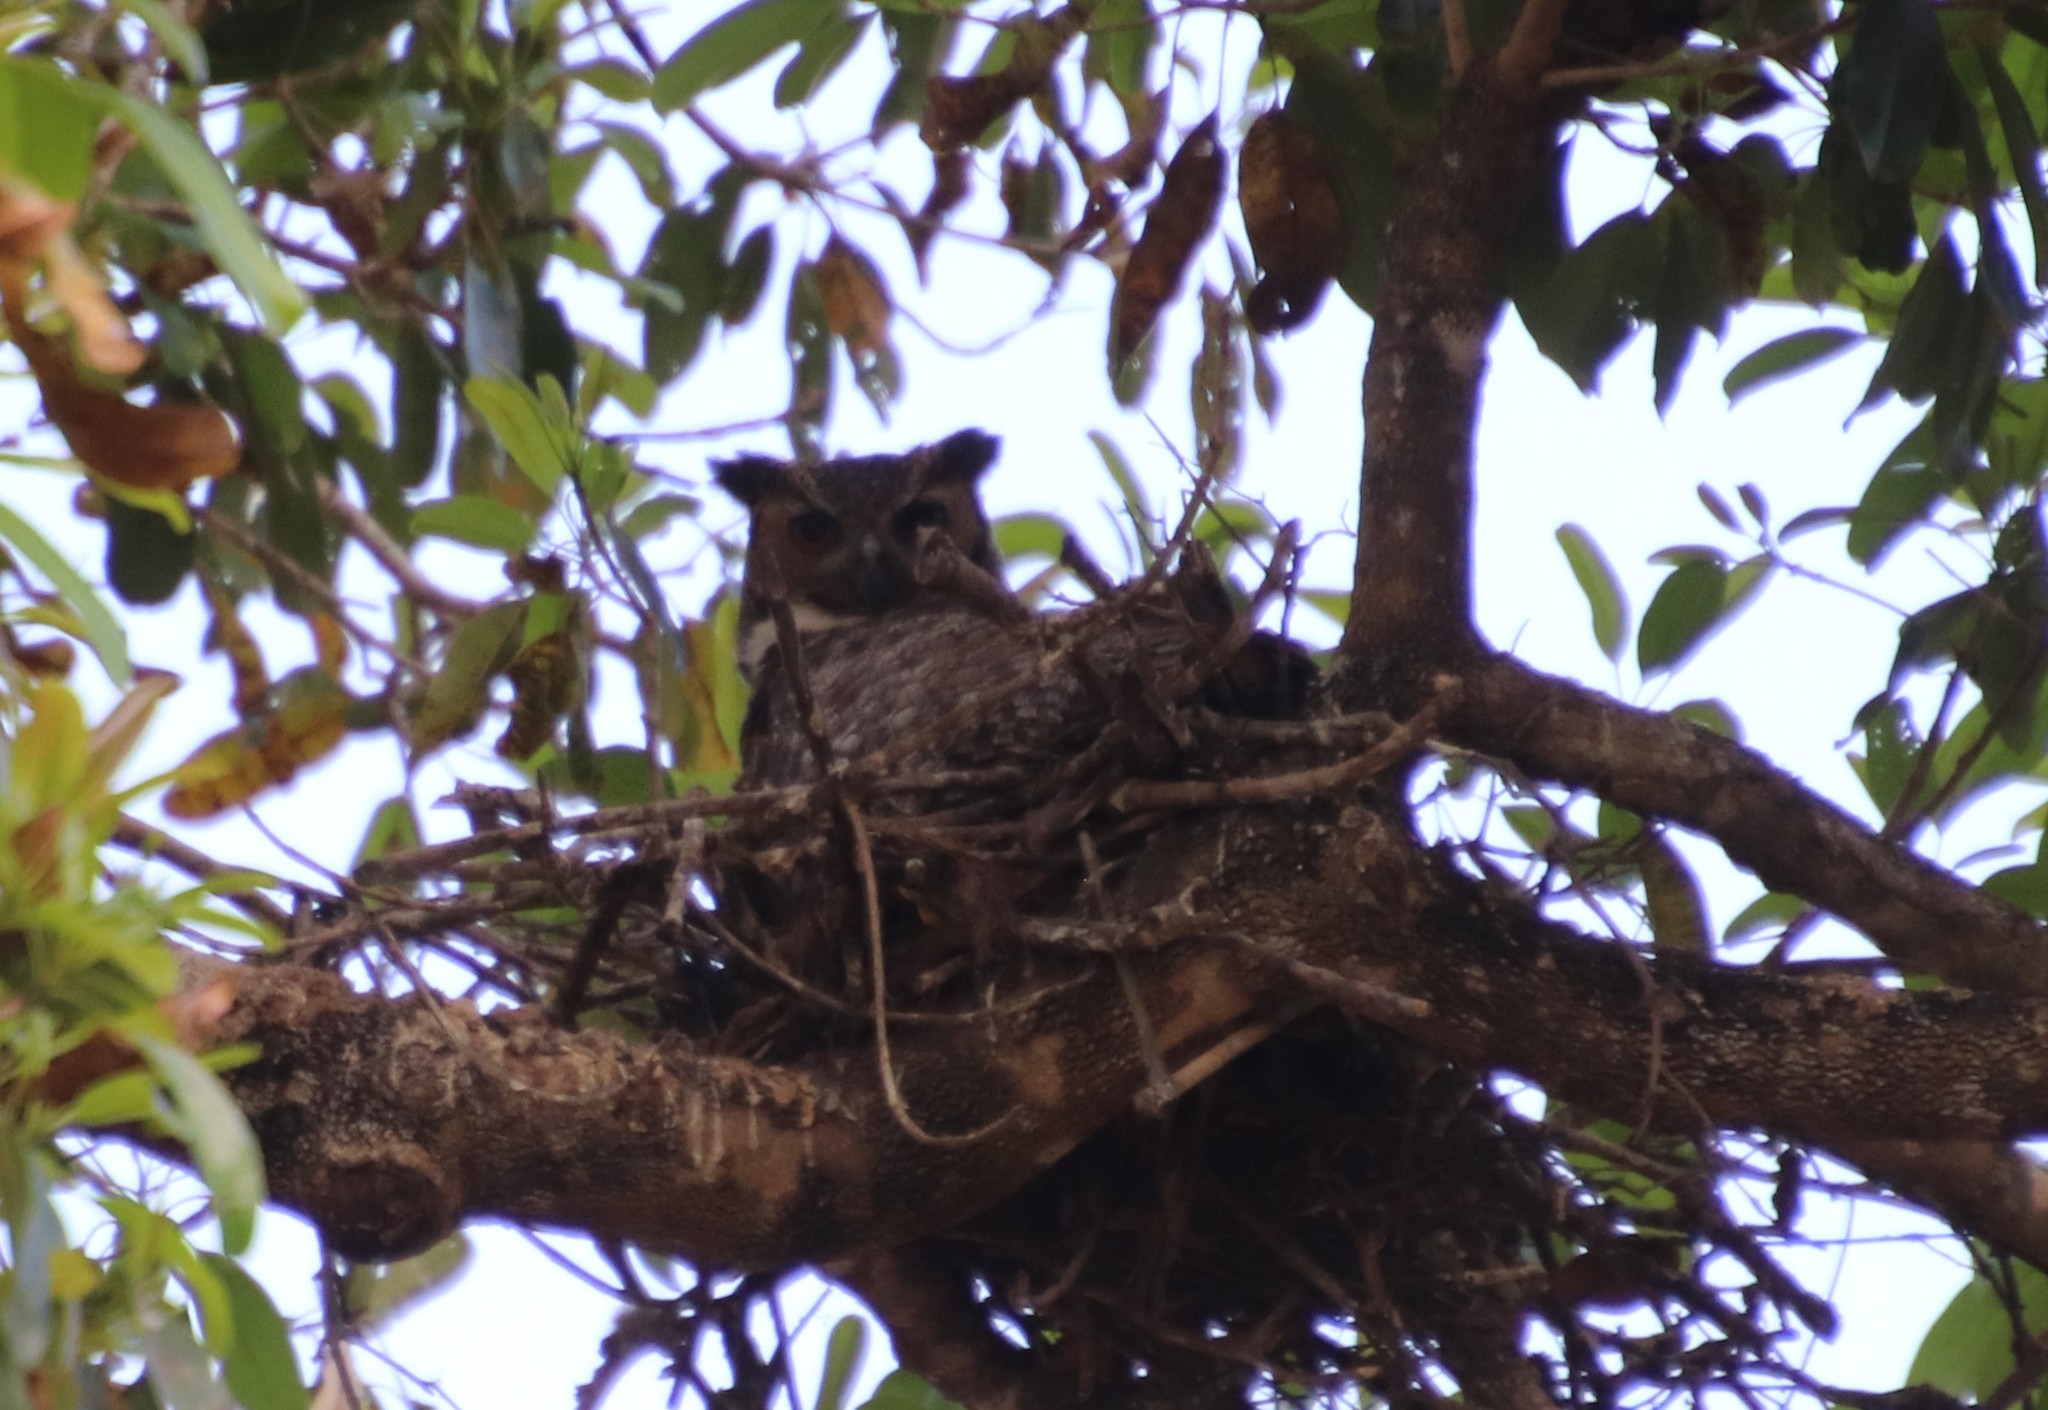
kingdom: Animalia
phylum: Chordata
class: Aves
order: Strigiformes
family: Strigidae
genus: Bubo
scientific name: Bubo virginianus
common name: Great horned owl
